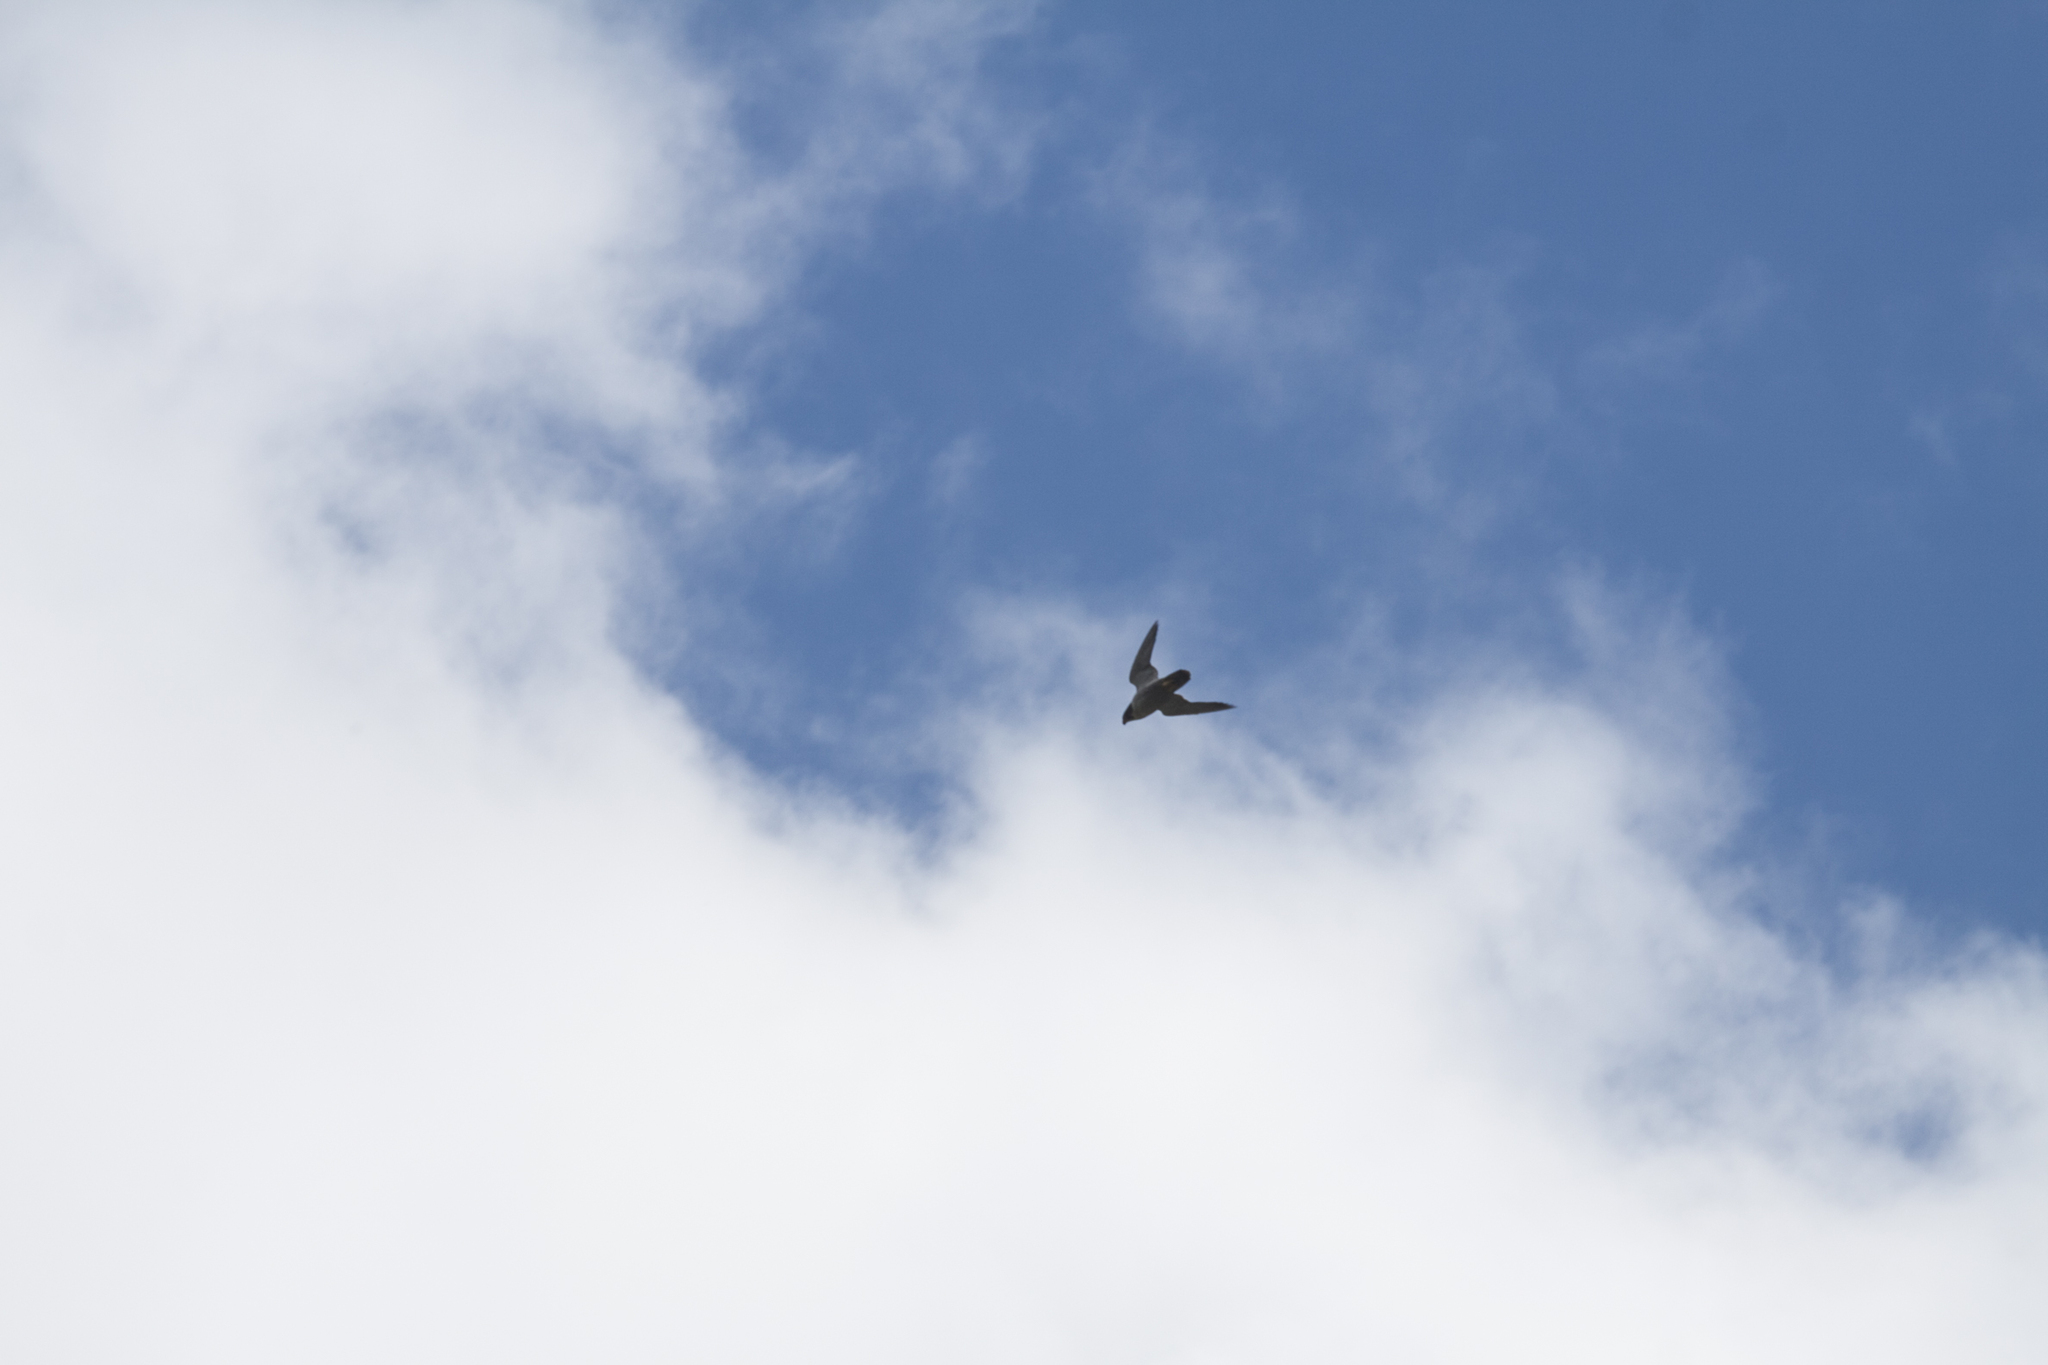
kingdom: Animalia
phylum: Chordata
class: Aves
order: Falconiformes
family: Falconidae
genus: Falco
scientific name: Falco peregrinus
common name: Peregrine falcon
